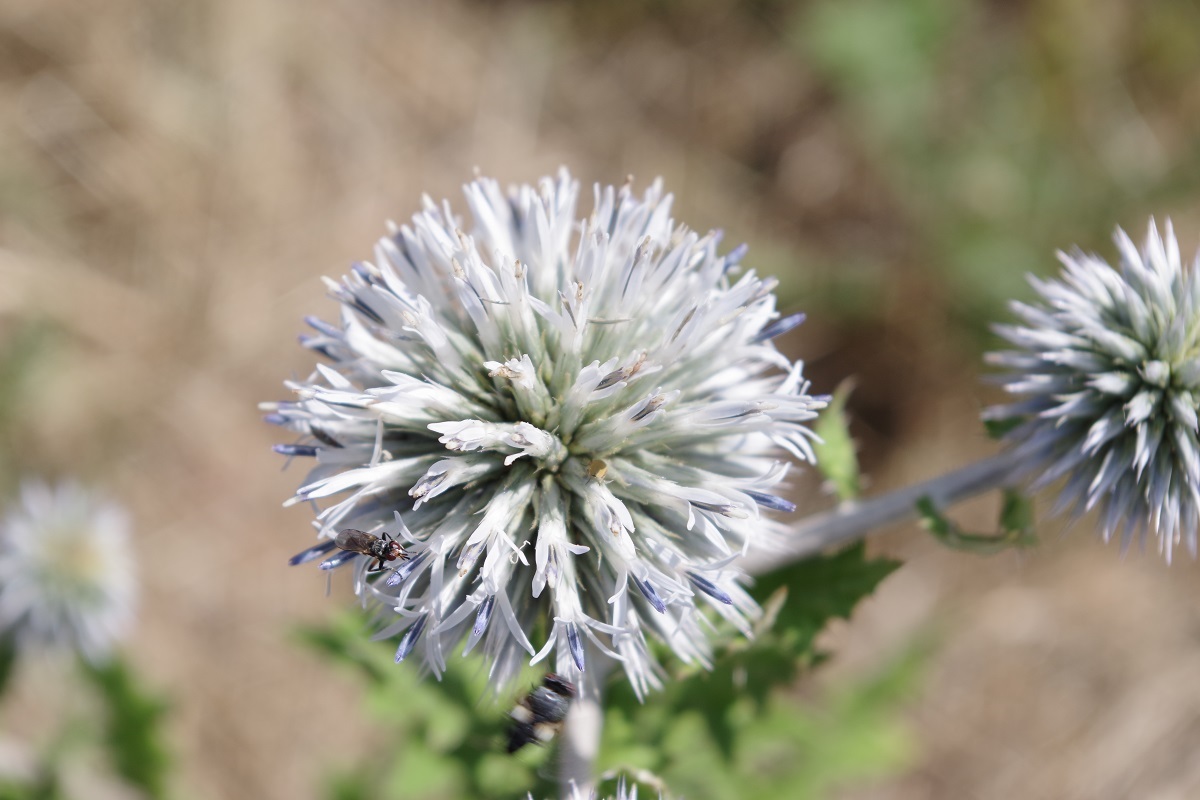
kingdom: Plantae
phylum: Tracheophyta
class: Magnoliopsida
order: Asterales
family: Asteraceae
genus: Echinops
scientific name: Echinops sphaerocephalus
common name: Glandular globe-thistle
